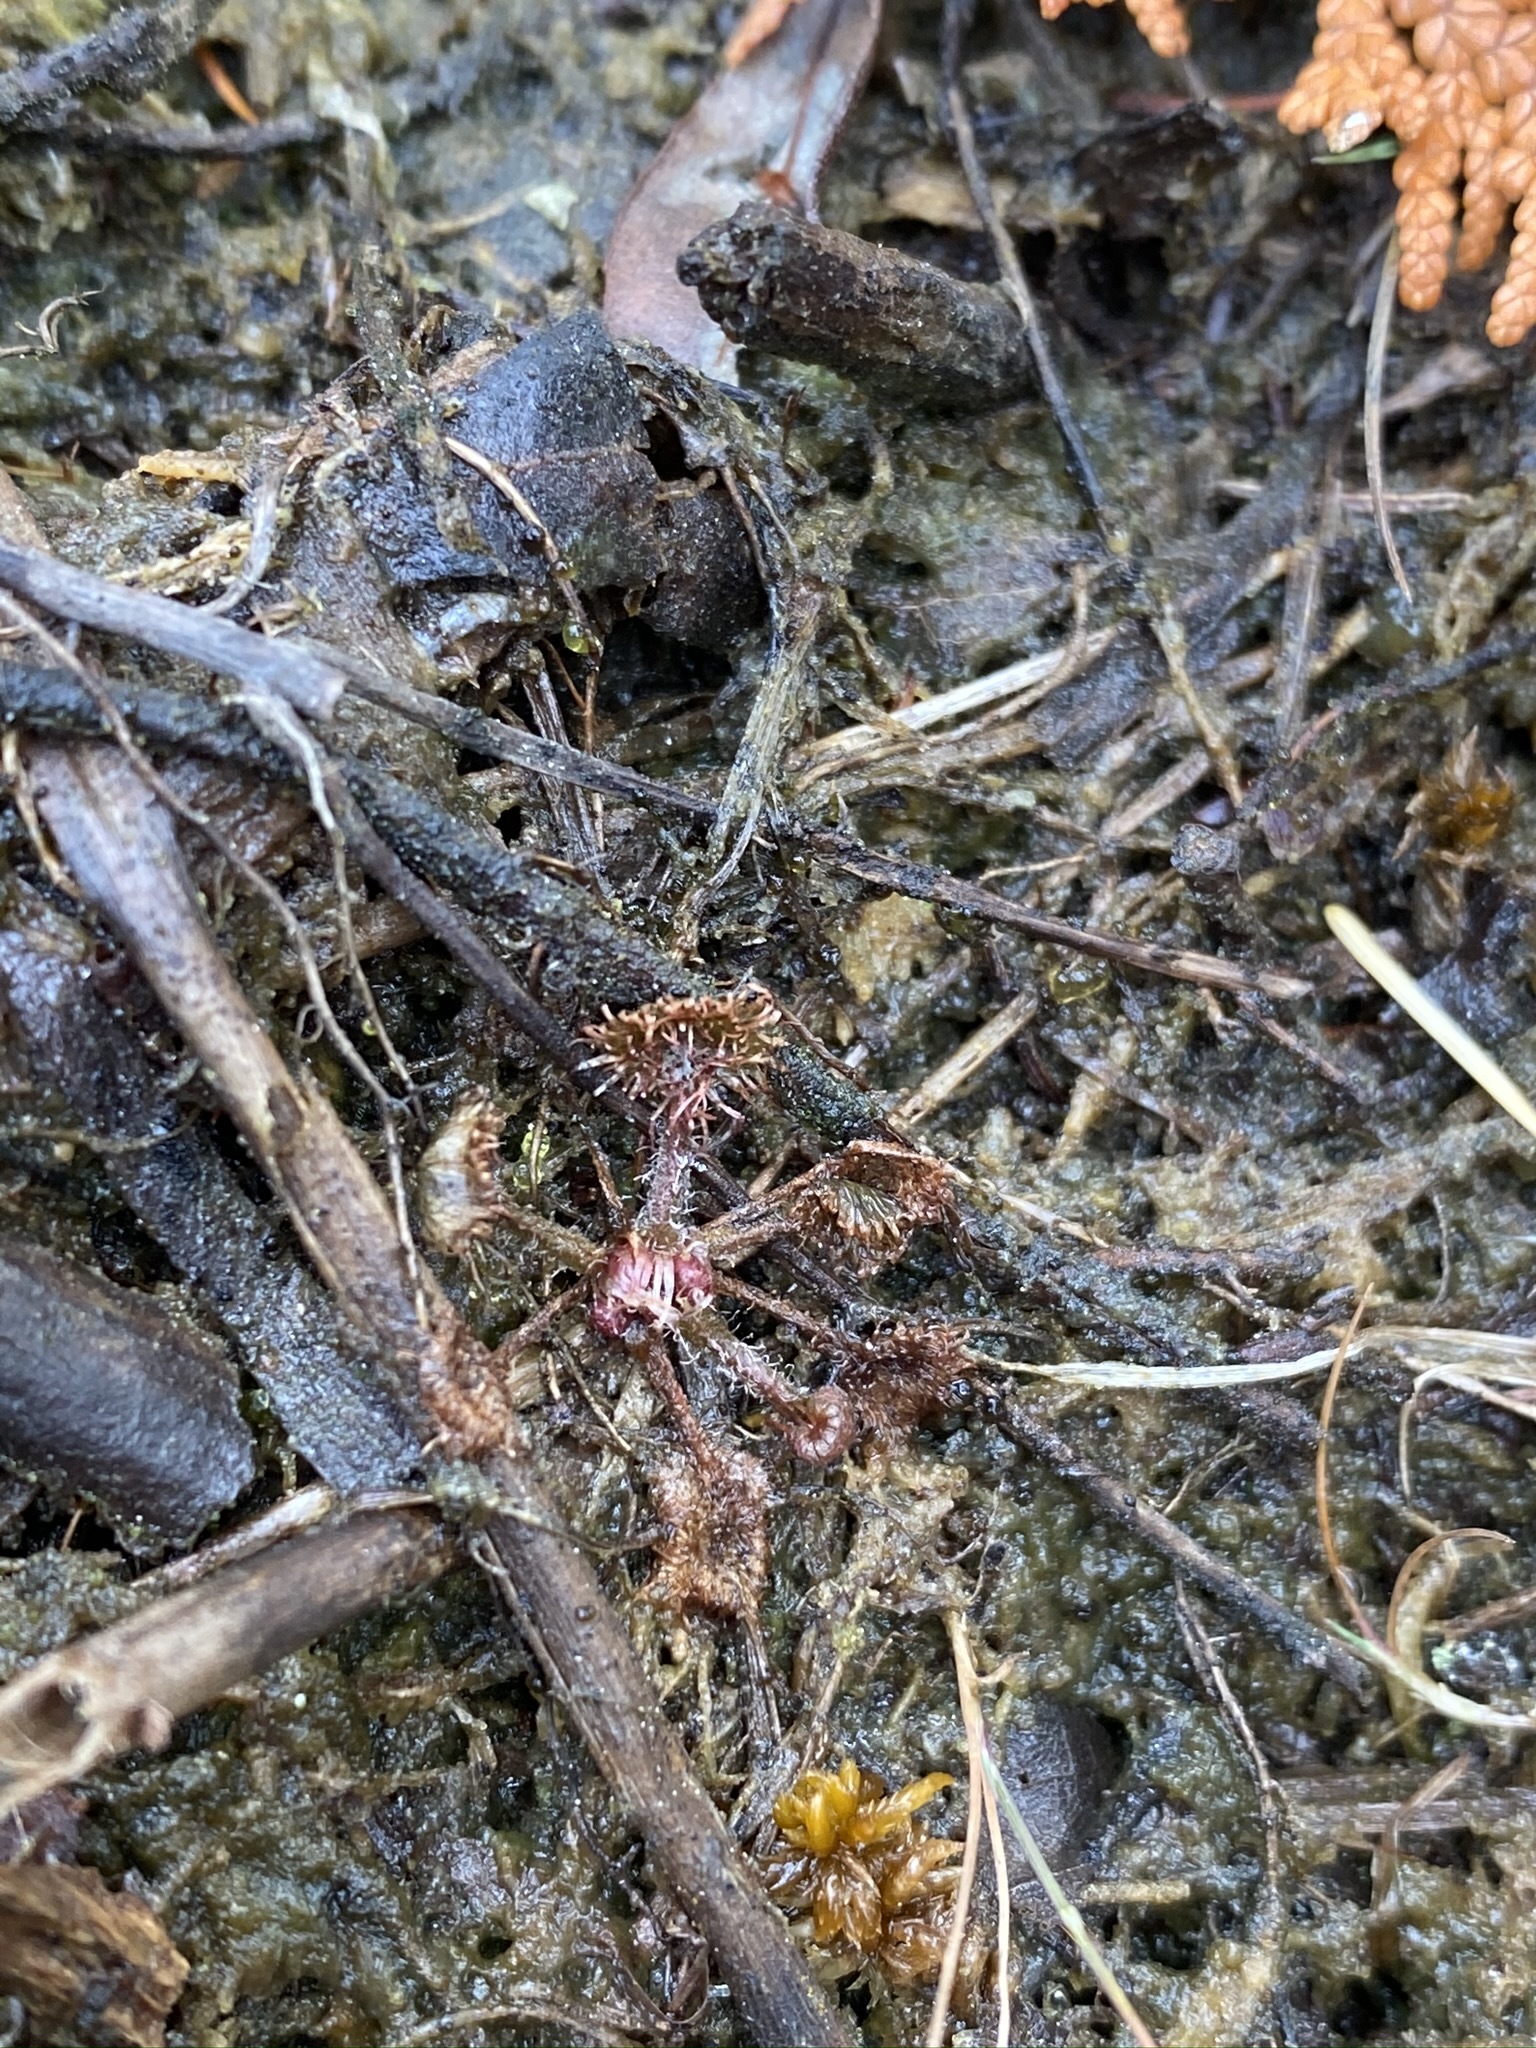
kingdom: Plantae
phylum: Tracheophyta
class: Magnoliopsida
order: Caryophyllales
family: Droseraceae
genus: Drosera
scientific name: Drosera rotundifolia
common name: Round-leaved sundew
